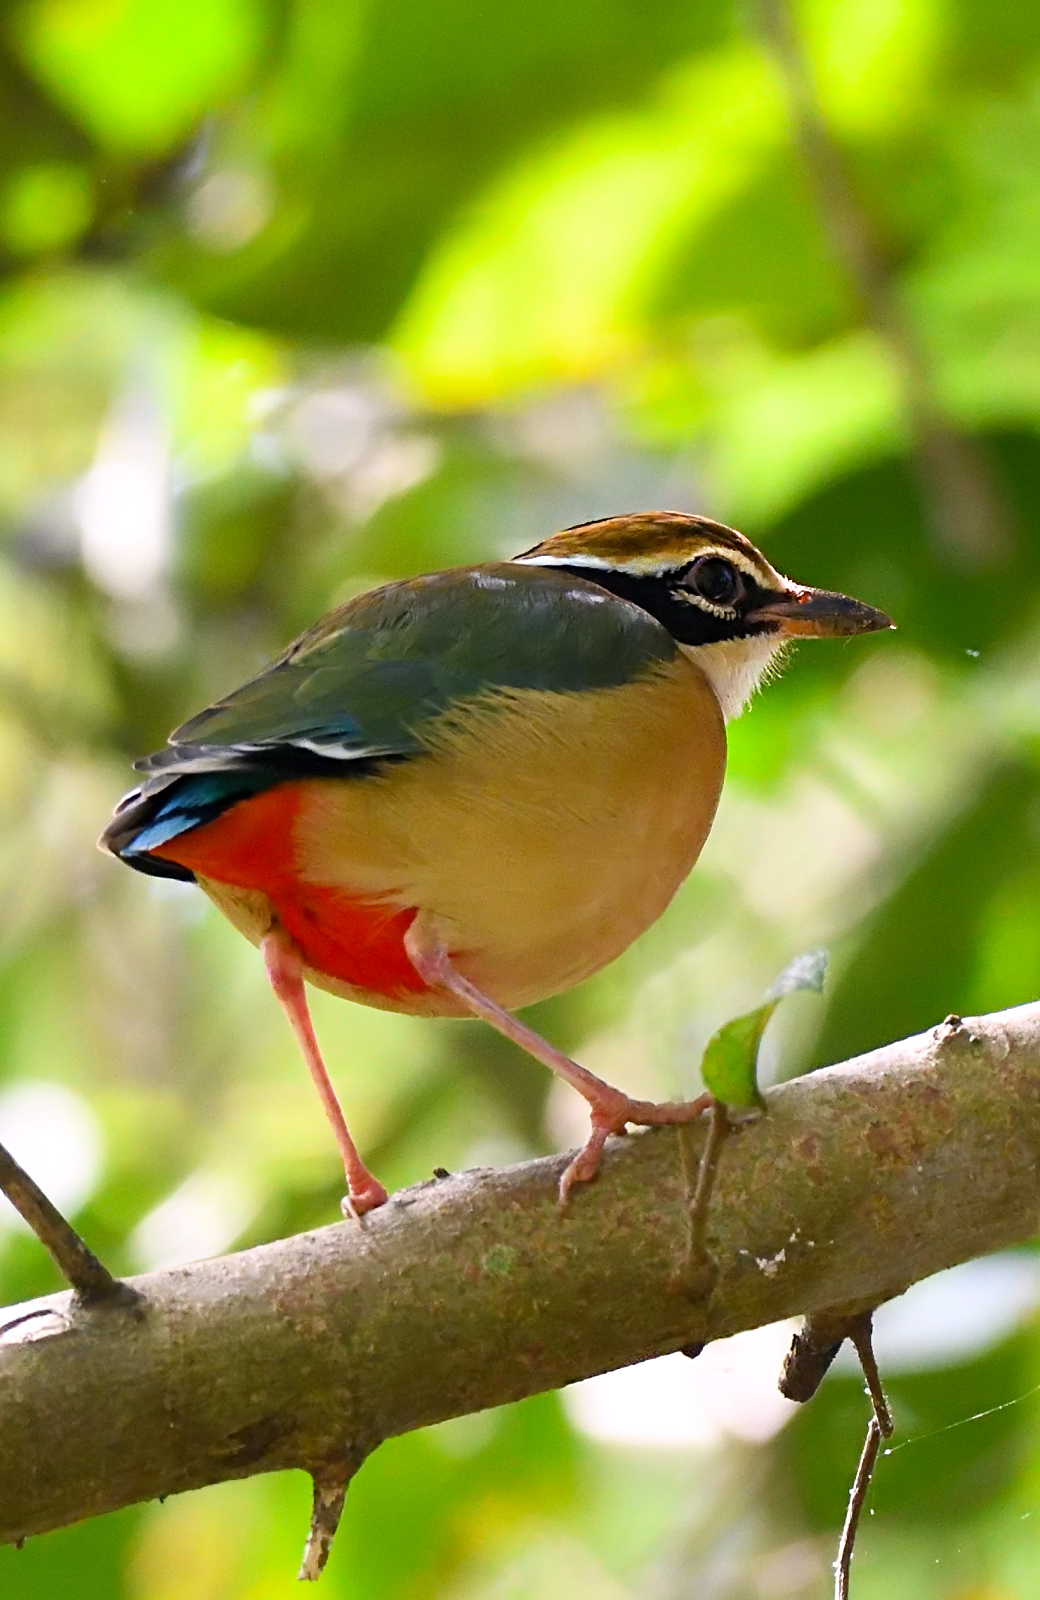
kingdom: Animalia
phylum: Chordata
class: Aves
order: Passeriformes
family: Pittidae
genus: Pitta
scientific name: Pitta brachyura
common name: Indian pitta
